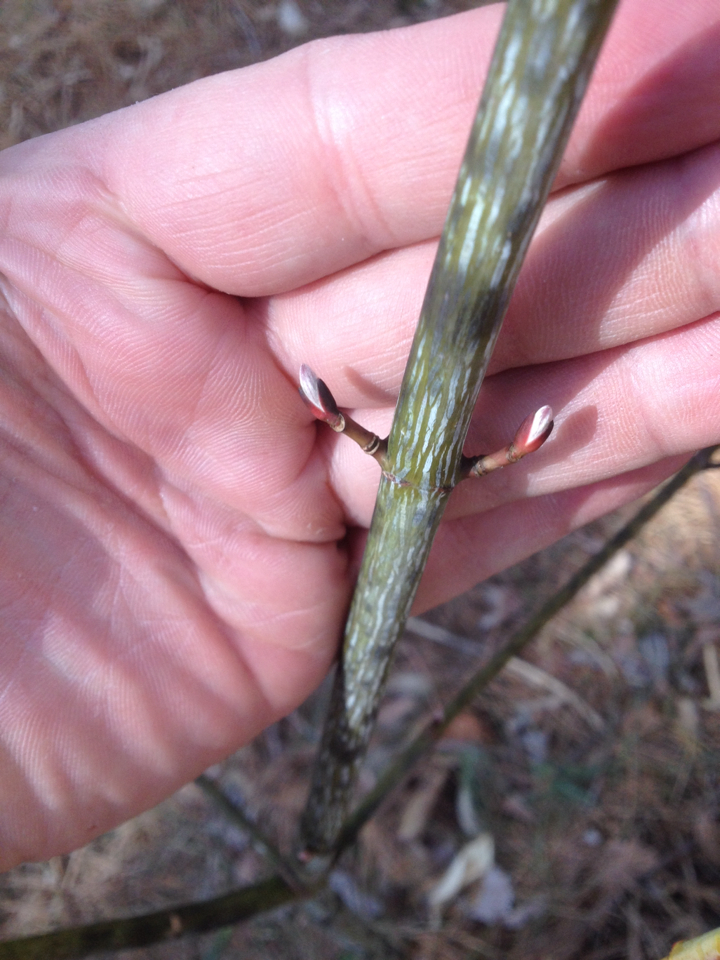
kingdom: Plantae
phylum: Tracheophyta
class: Magnoliopsida
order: Sapindales
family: Sapindaceae
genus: Acer
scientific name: Acer pensylvanicum
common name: Moosewood
